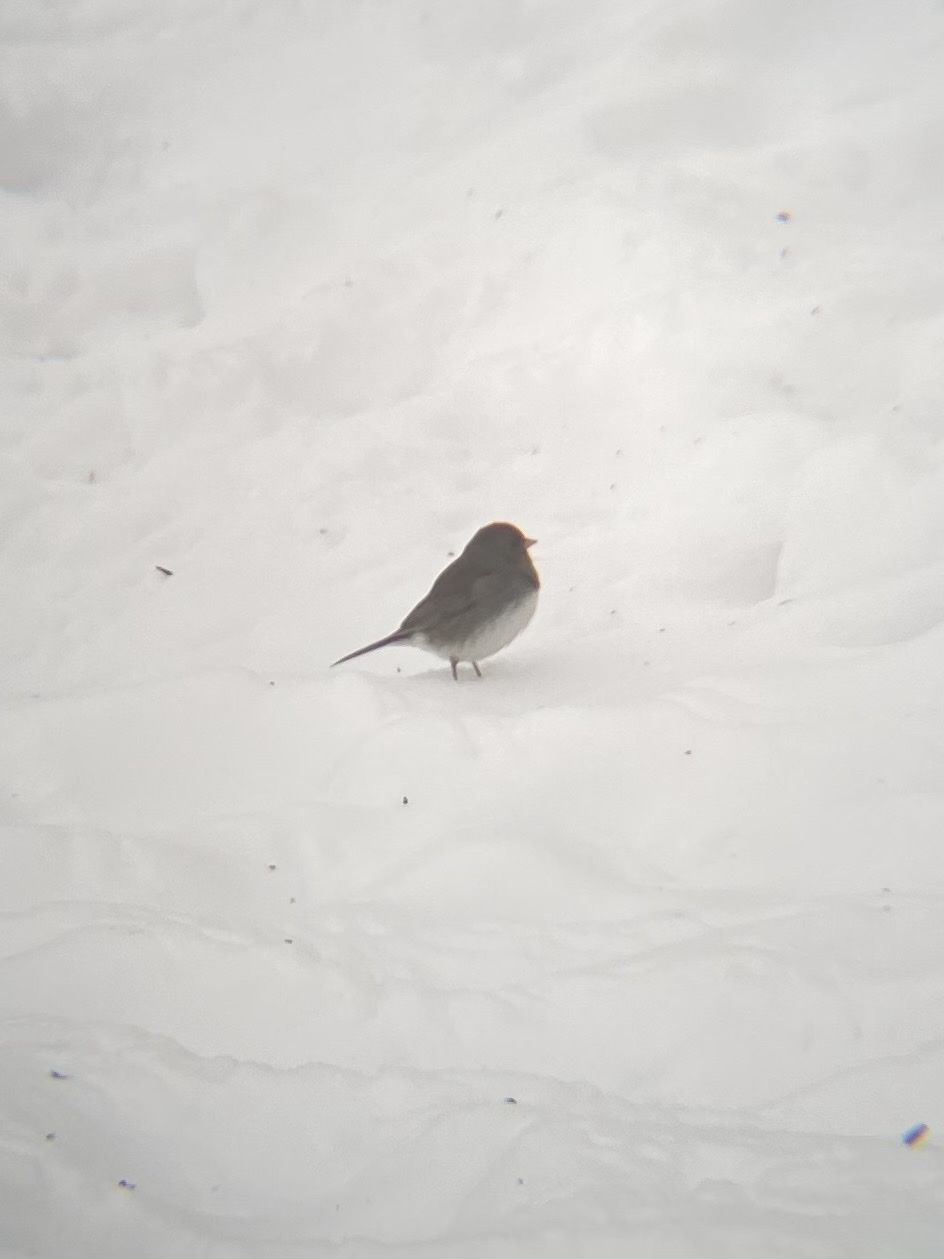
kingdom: Animalia
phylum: Chordata
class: Aves
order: Passeriformes
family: Passerellidae
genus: Junco
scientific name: Junco hyemalis
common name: Dark-eyed junco
